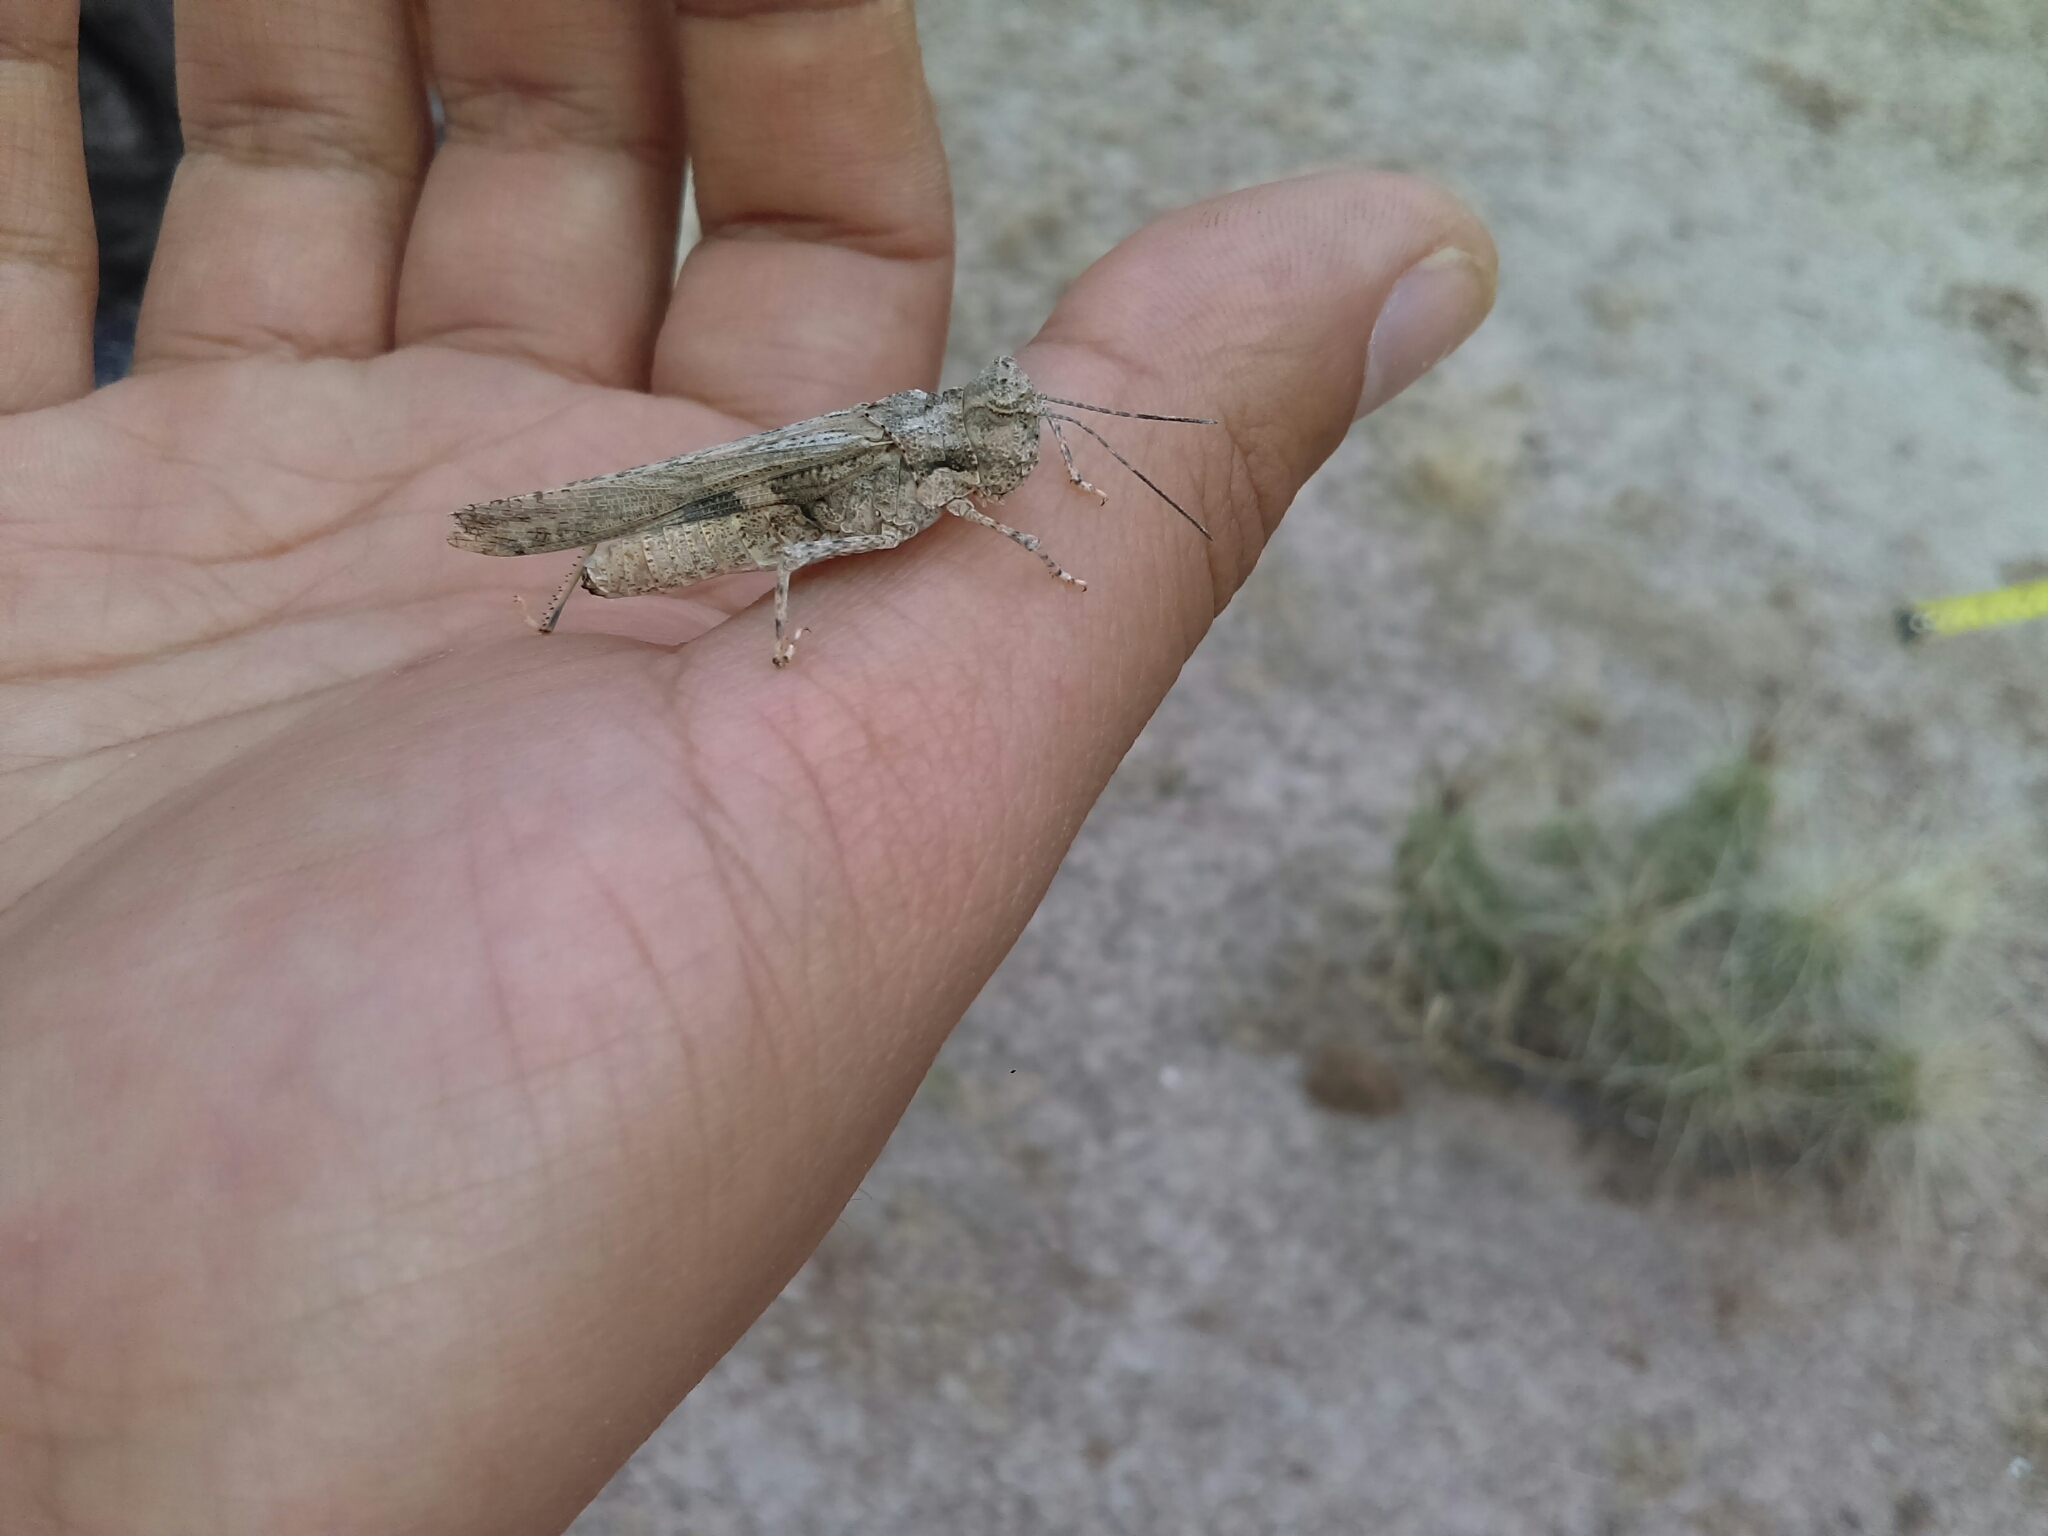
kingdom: Animalia
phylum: Arthropoda
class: Insecta
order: Orthoptera
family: Acrididae
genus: Mestobregma
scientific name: Mestobregma terricolor
